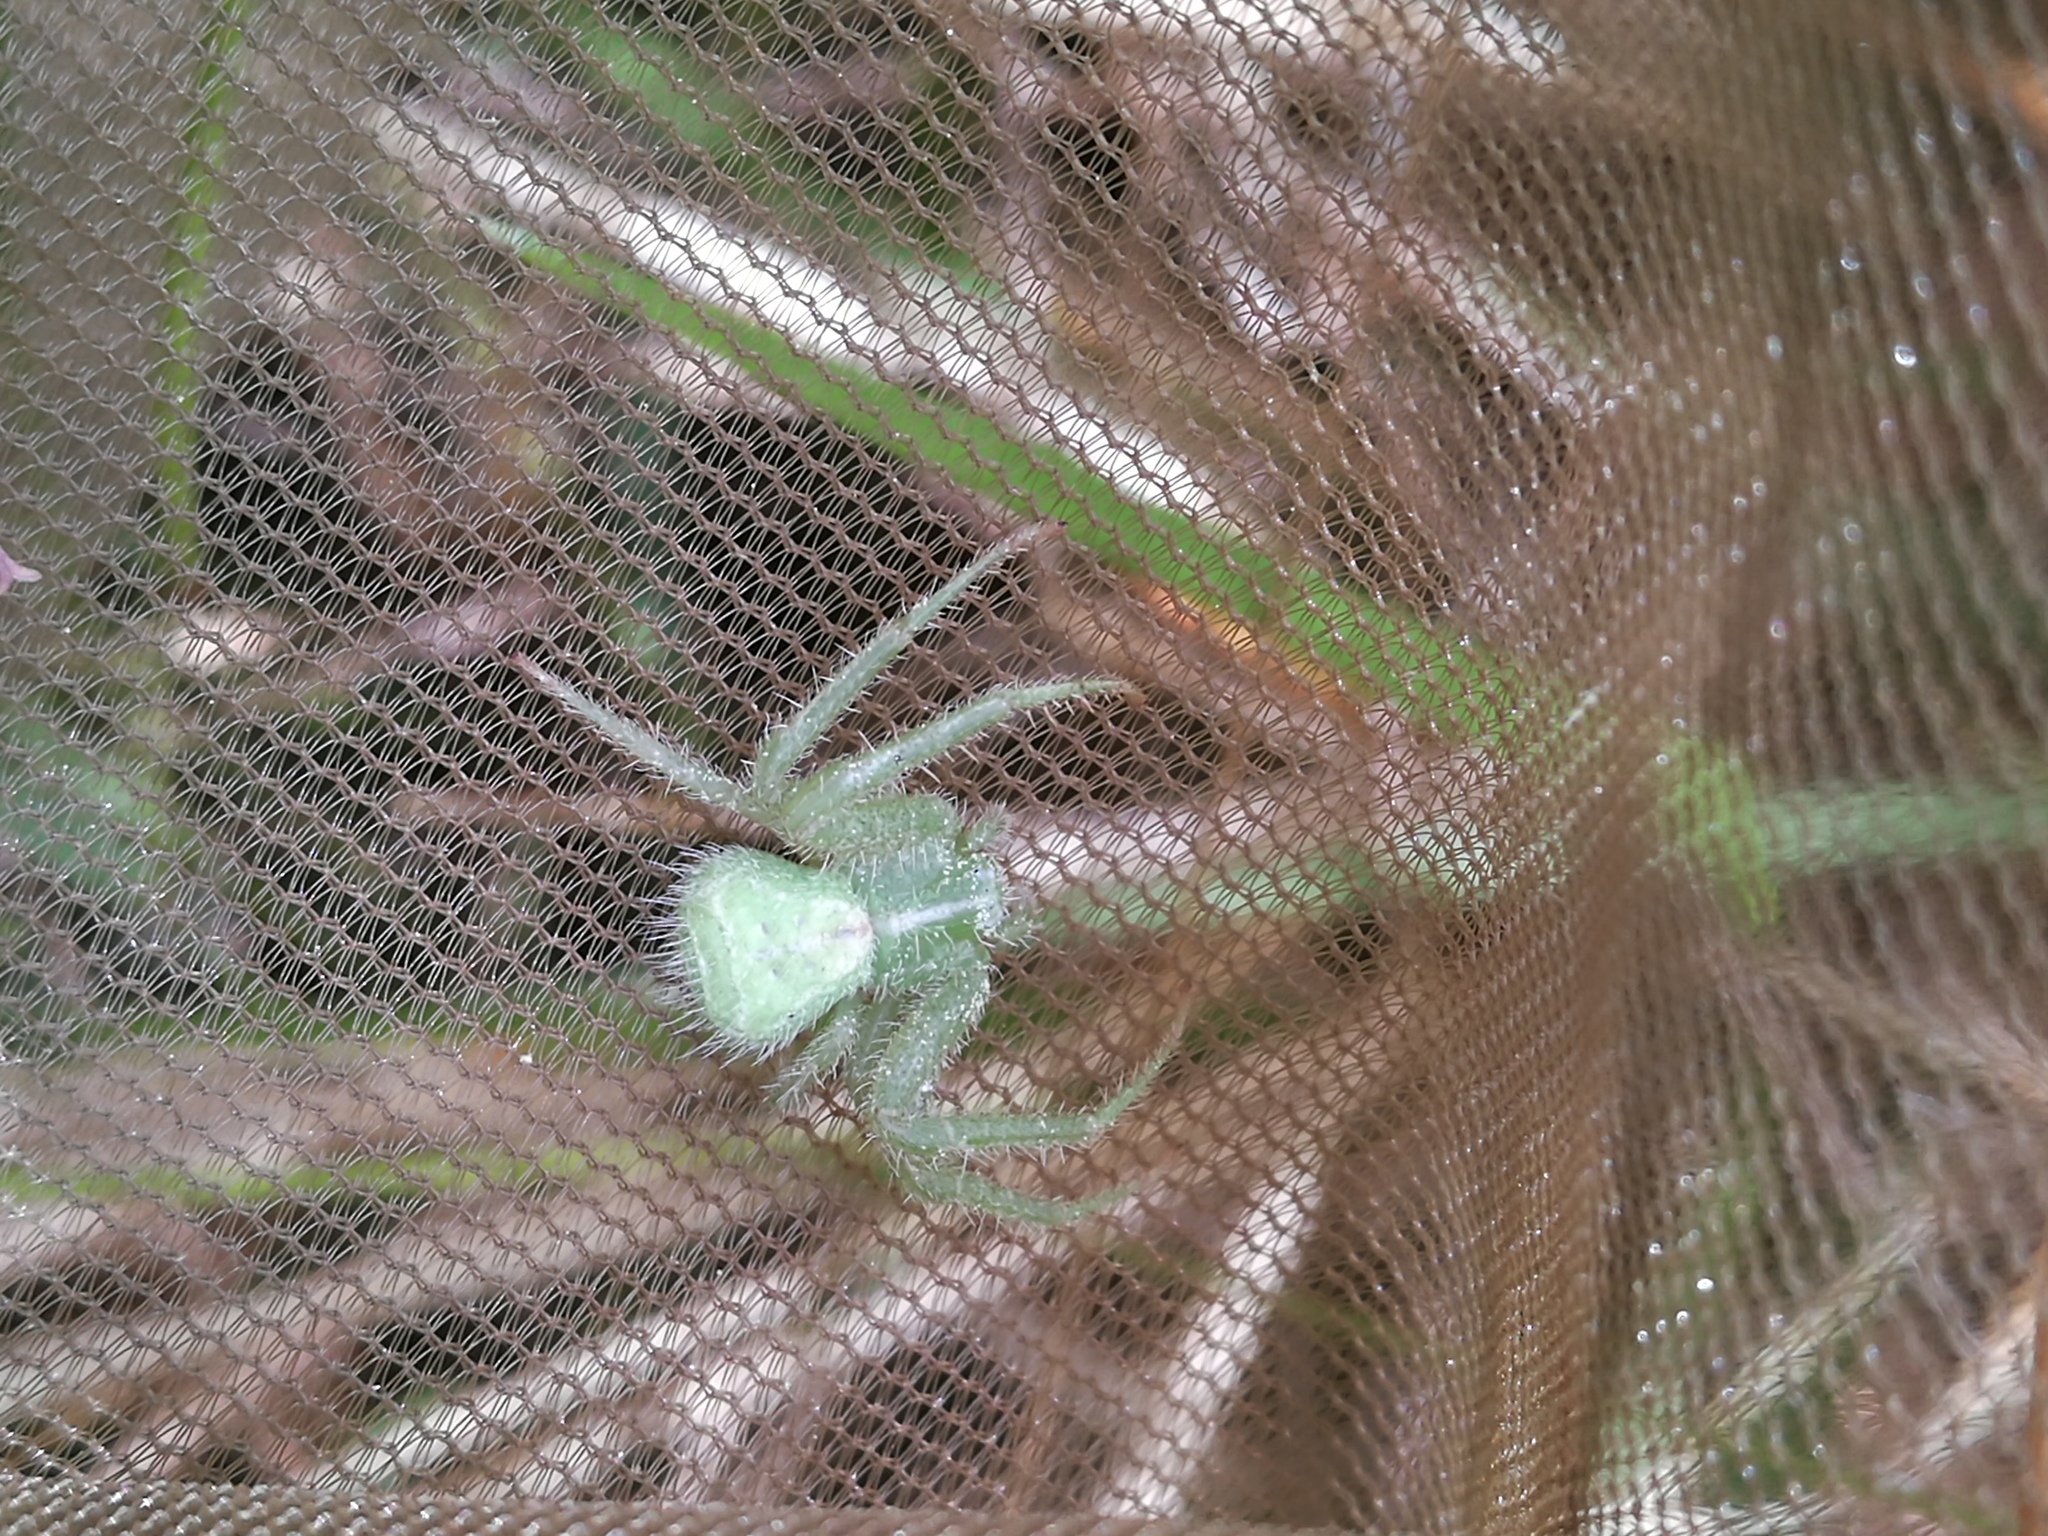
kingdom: Animalia
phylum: Arthropoda
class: Arachnida
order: Araneae
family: Thomisidae
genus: Heriaeus
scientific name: Heriaeus hirtus
